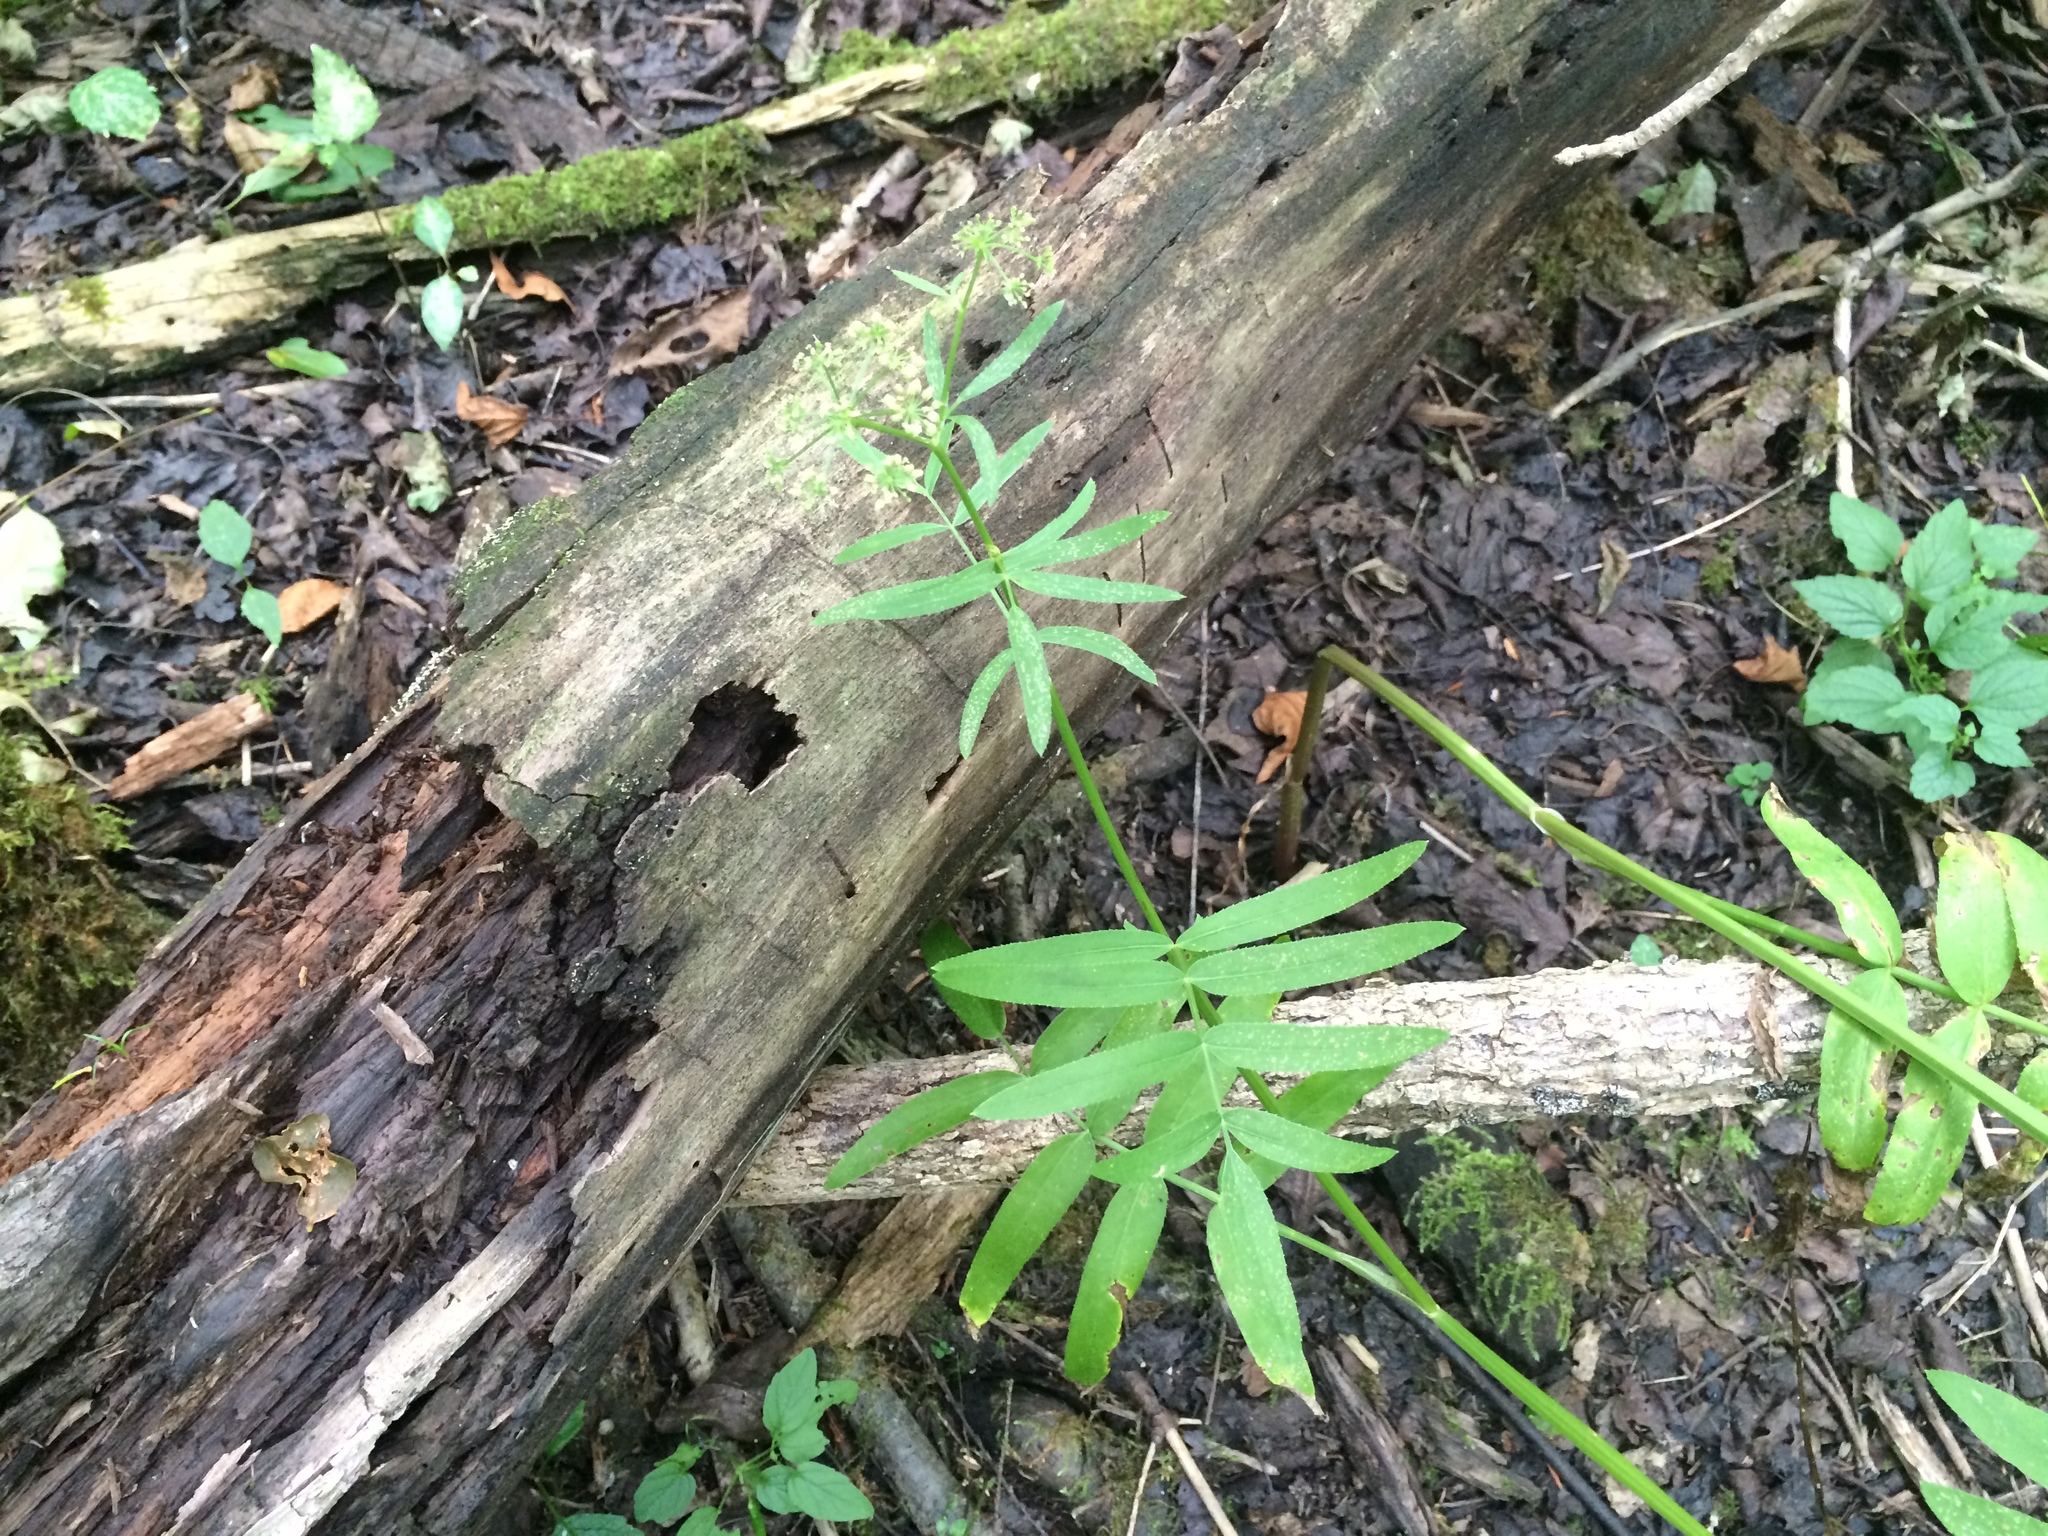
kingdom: Plantae
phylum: Tracheophyta
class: Magnoliopsida
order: Apiales
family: Apiaceae
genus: Sium
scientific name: Sium suave
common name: Hemlock water-parsnip
